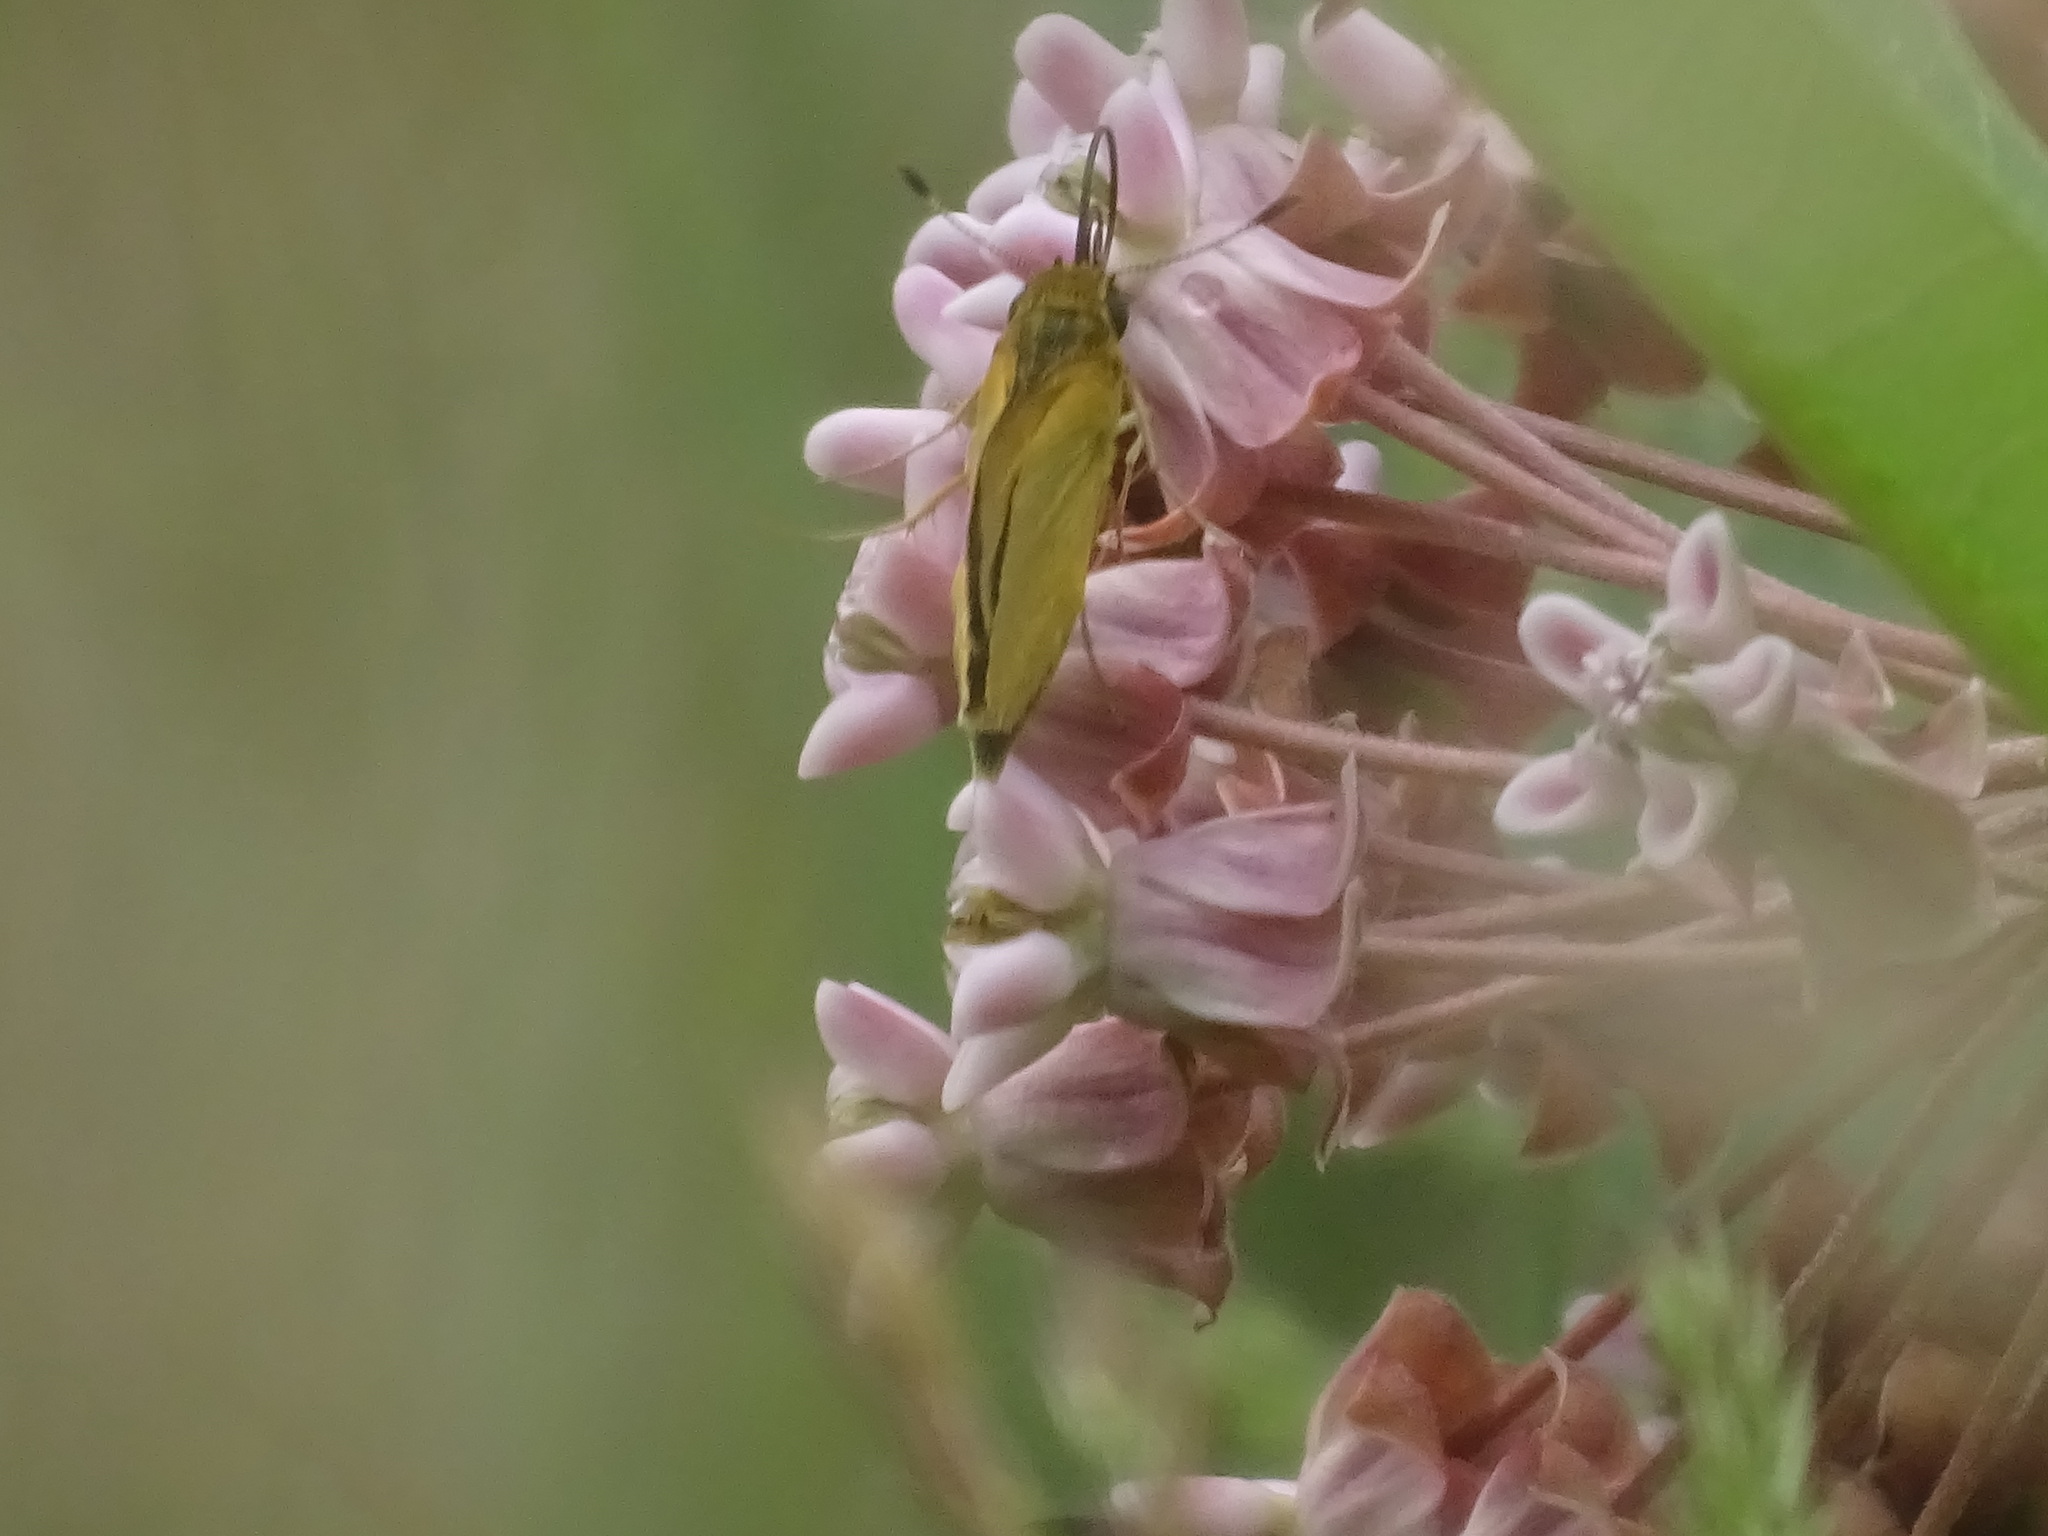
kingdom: Animalia
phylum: Arthropoda
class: Insecta
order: Lepidoptera
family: Hesperiidae
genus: Atrytone
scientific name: Atrytone delaware
